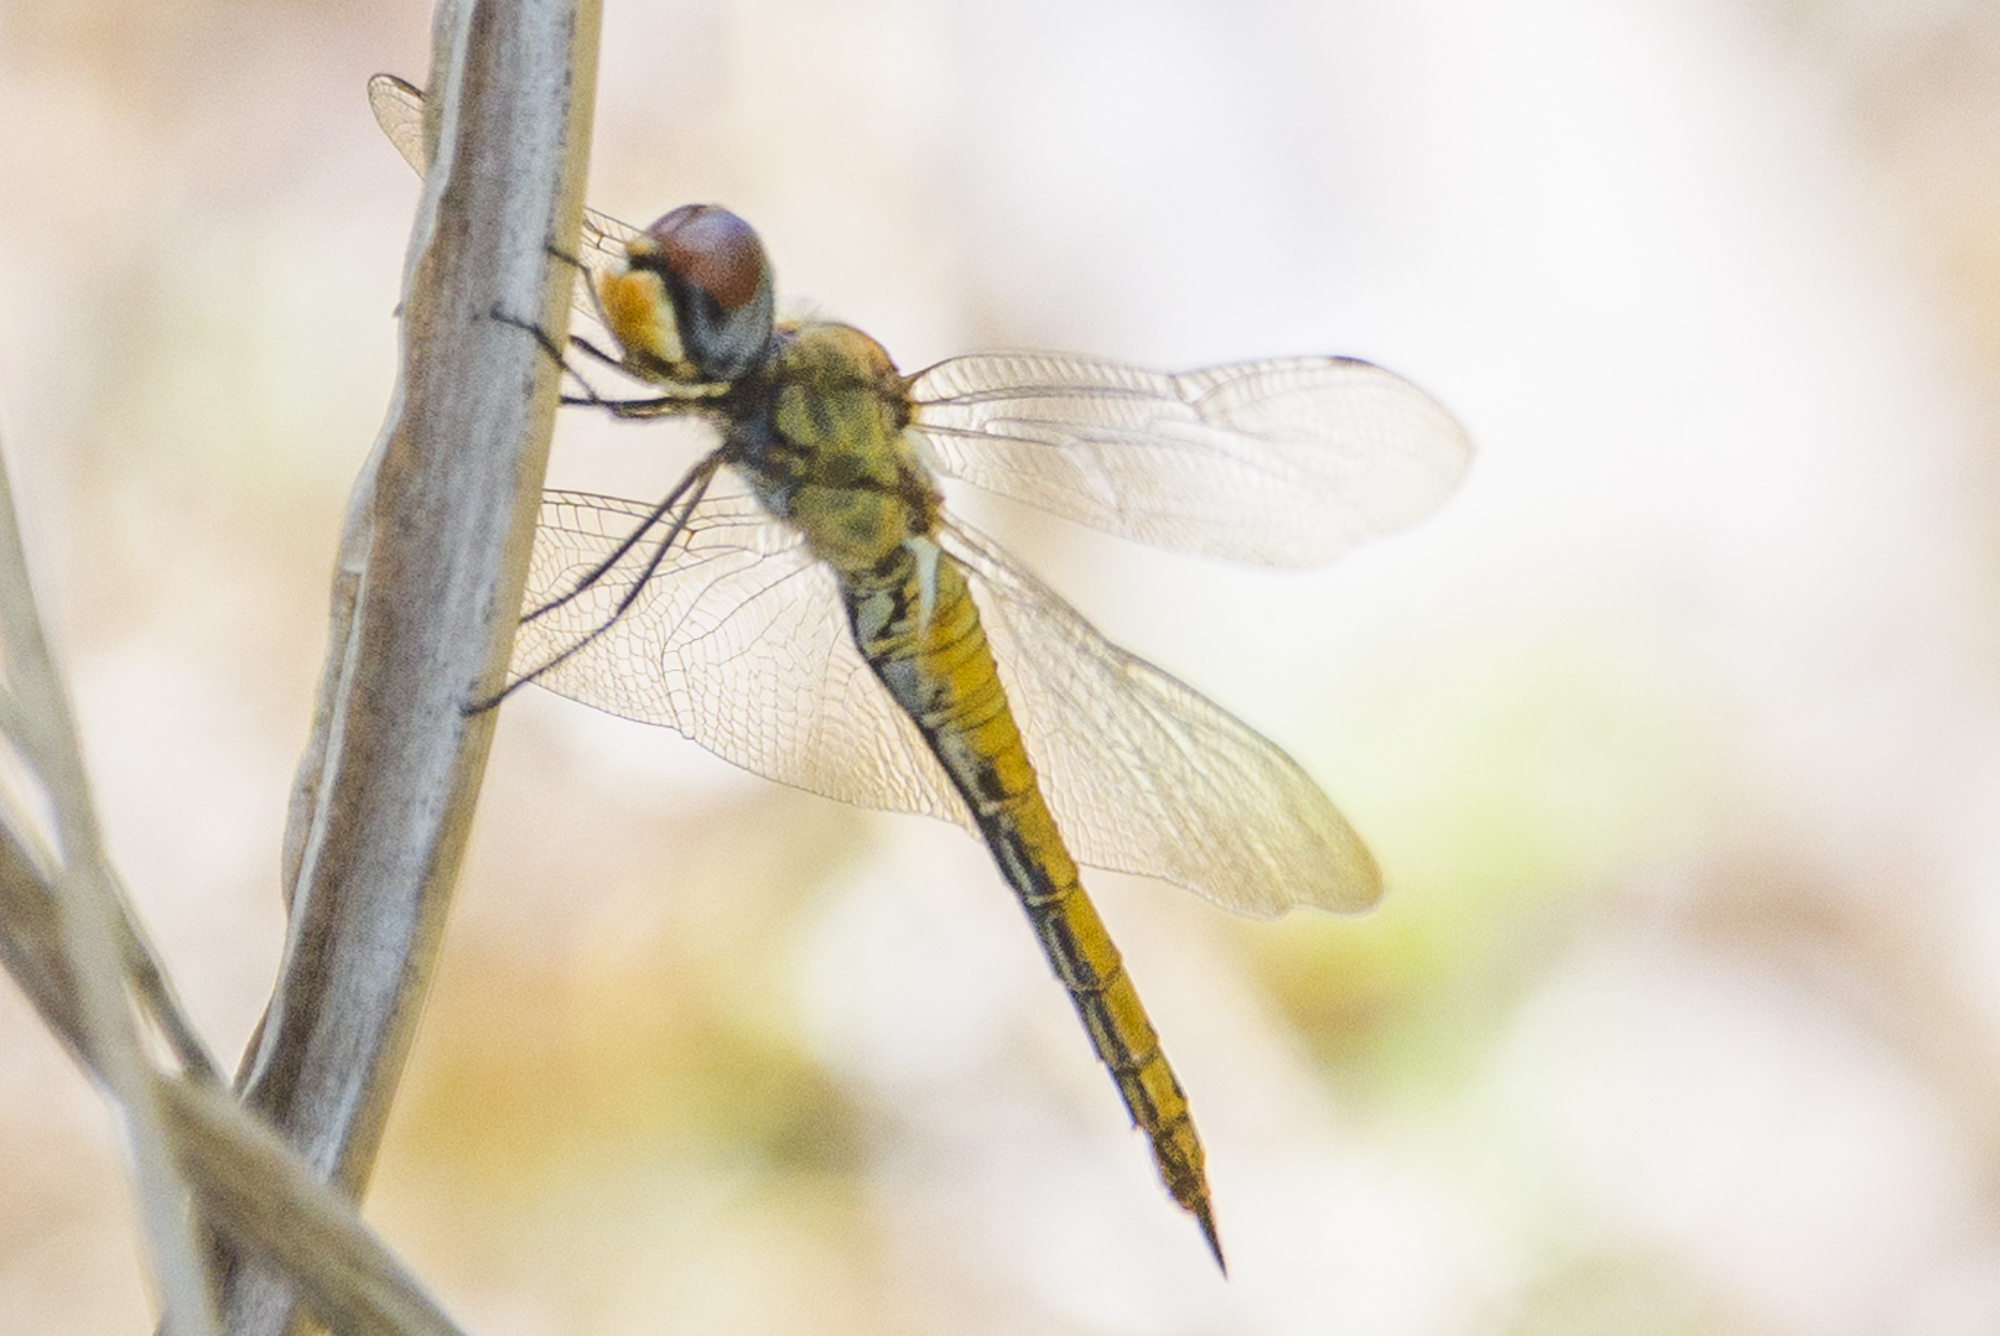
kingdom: Animalia
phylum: Arthropoda
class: Insecta
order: Odonata
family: Libellulidae
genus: Pantala
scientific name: Pantala flavescens
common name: Wandering glider
